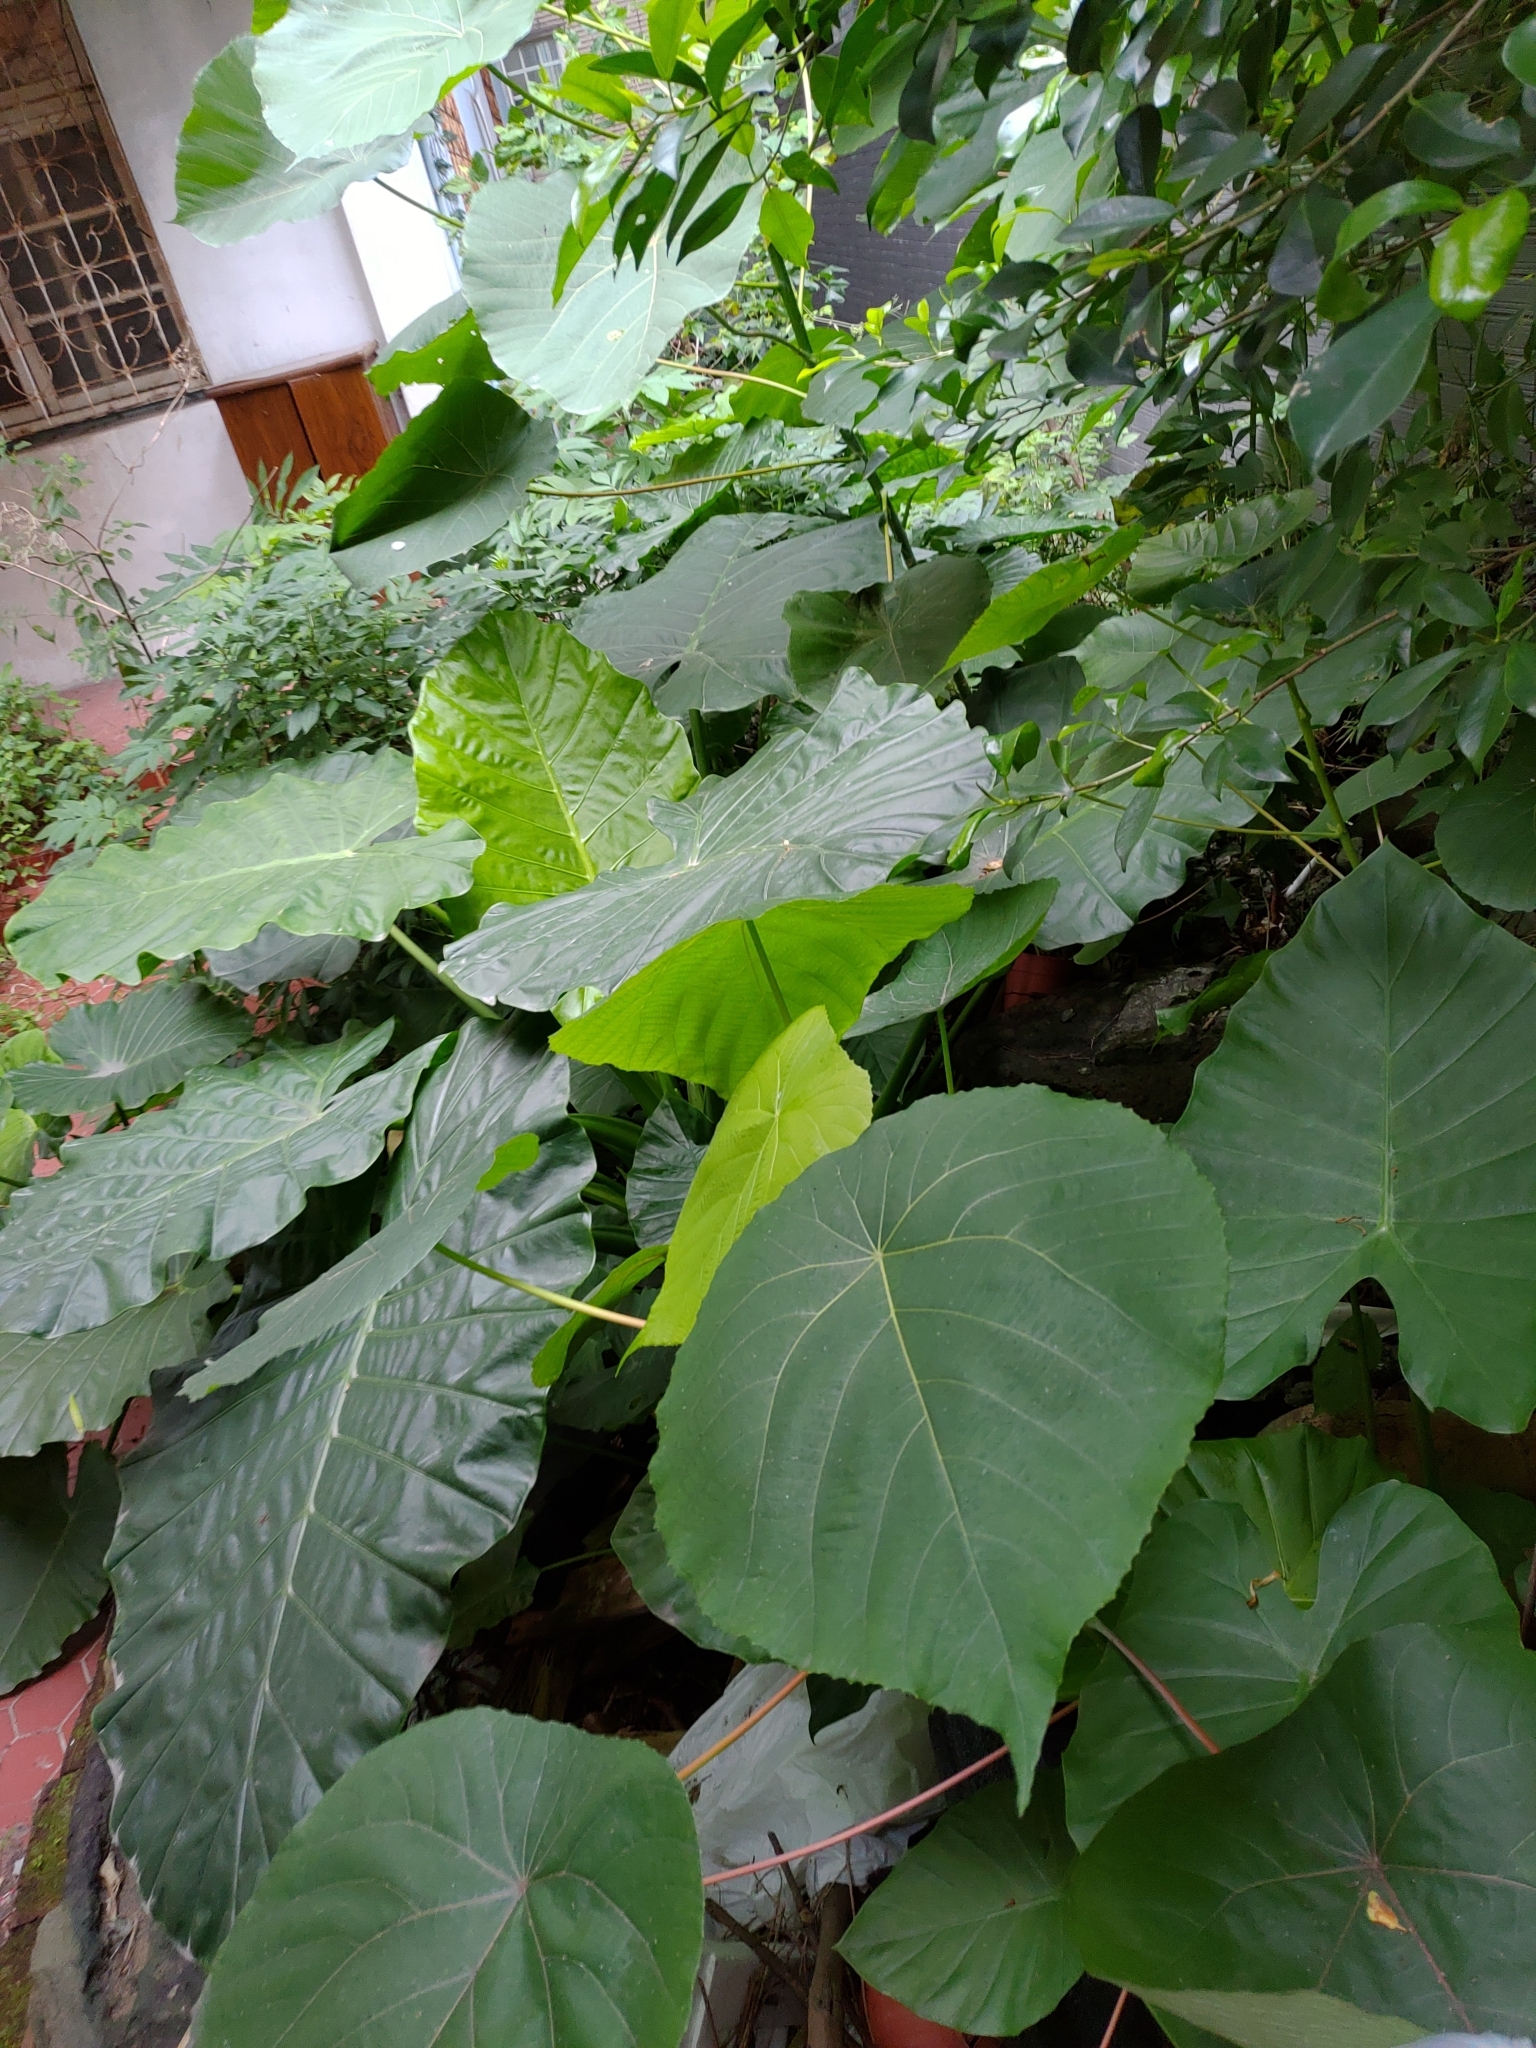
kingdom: Plantae
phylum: Tracheophyta
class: Magnoliopsida
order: Malpighiales
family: Euphorbiaceae
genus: Macaranga
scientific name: Macaranga tanarius
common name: Parasol leaf tree
